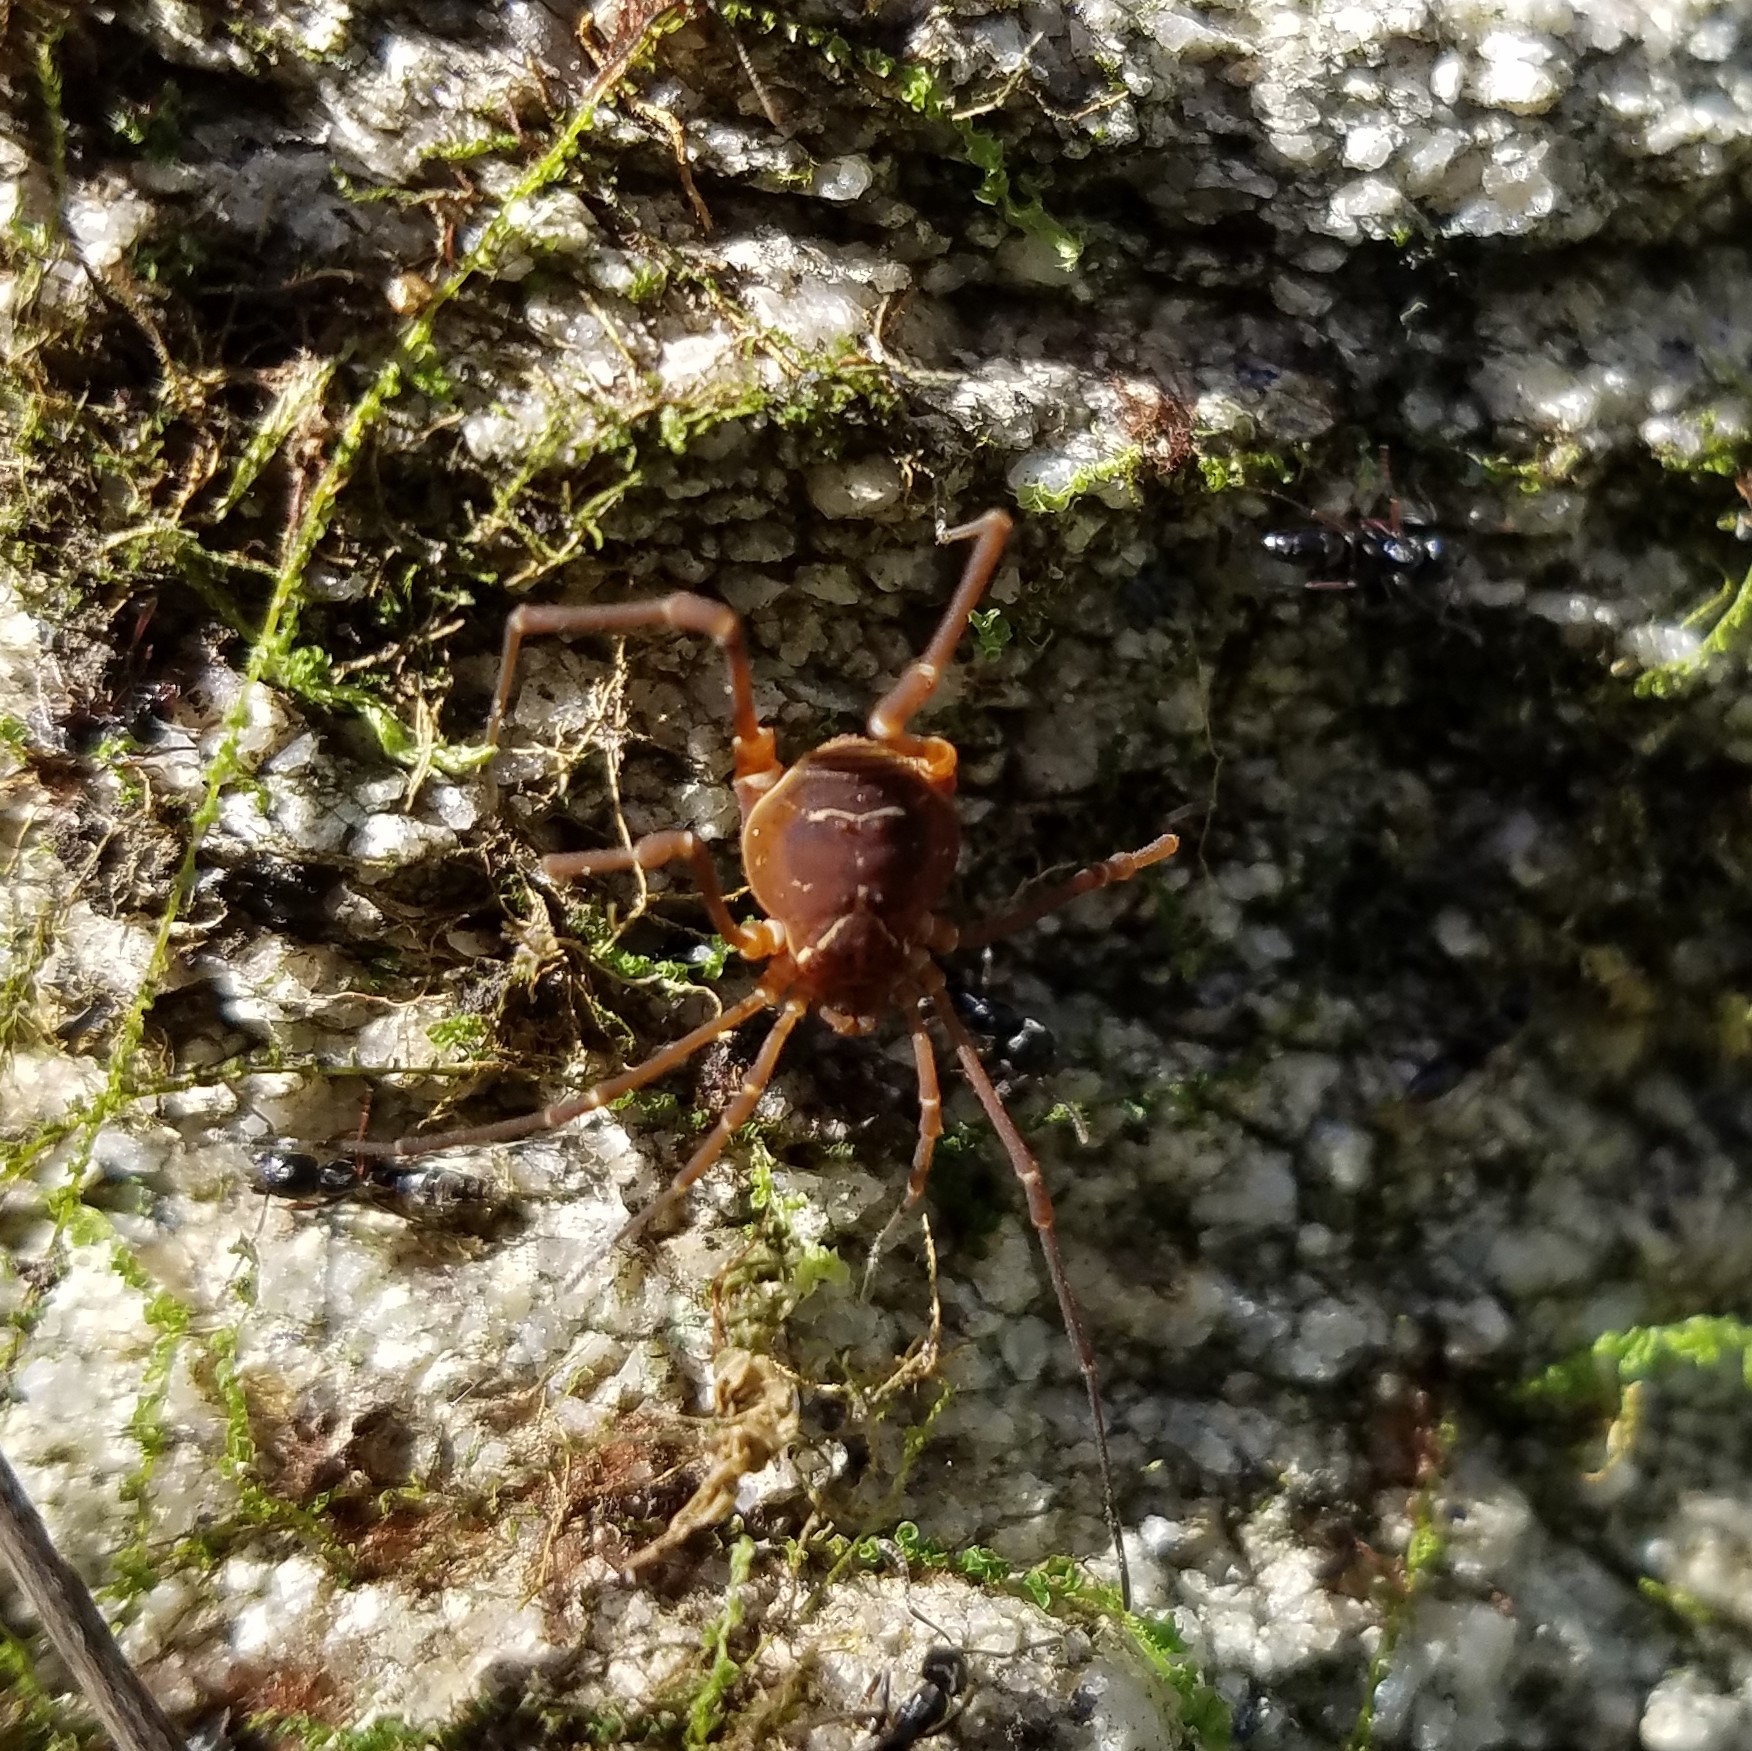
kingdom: Animalia
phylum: Arthropoda
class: Arachnida
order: Opiliones
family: Cosmetidae
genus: Libitioides
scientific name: Libitioides sayi
